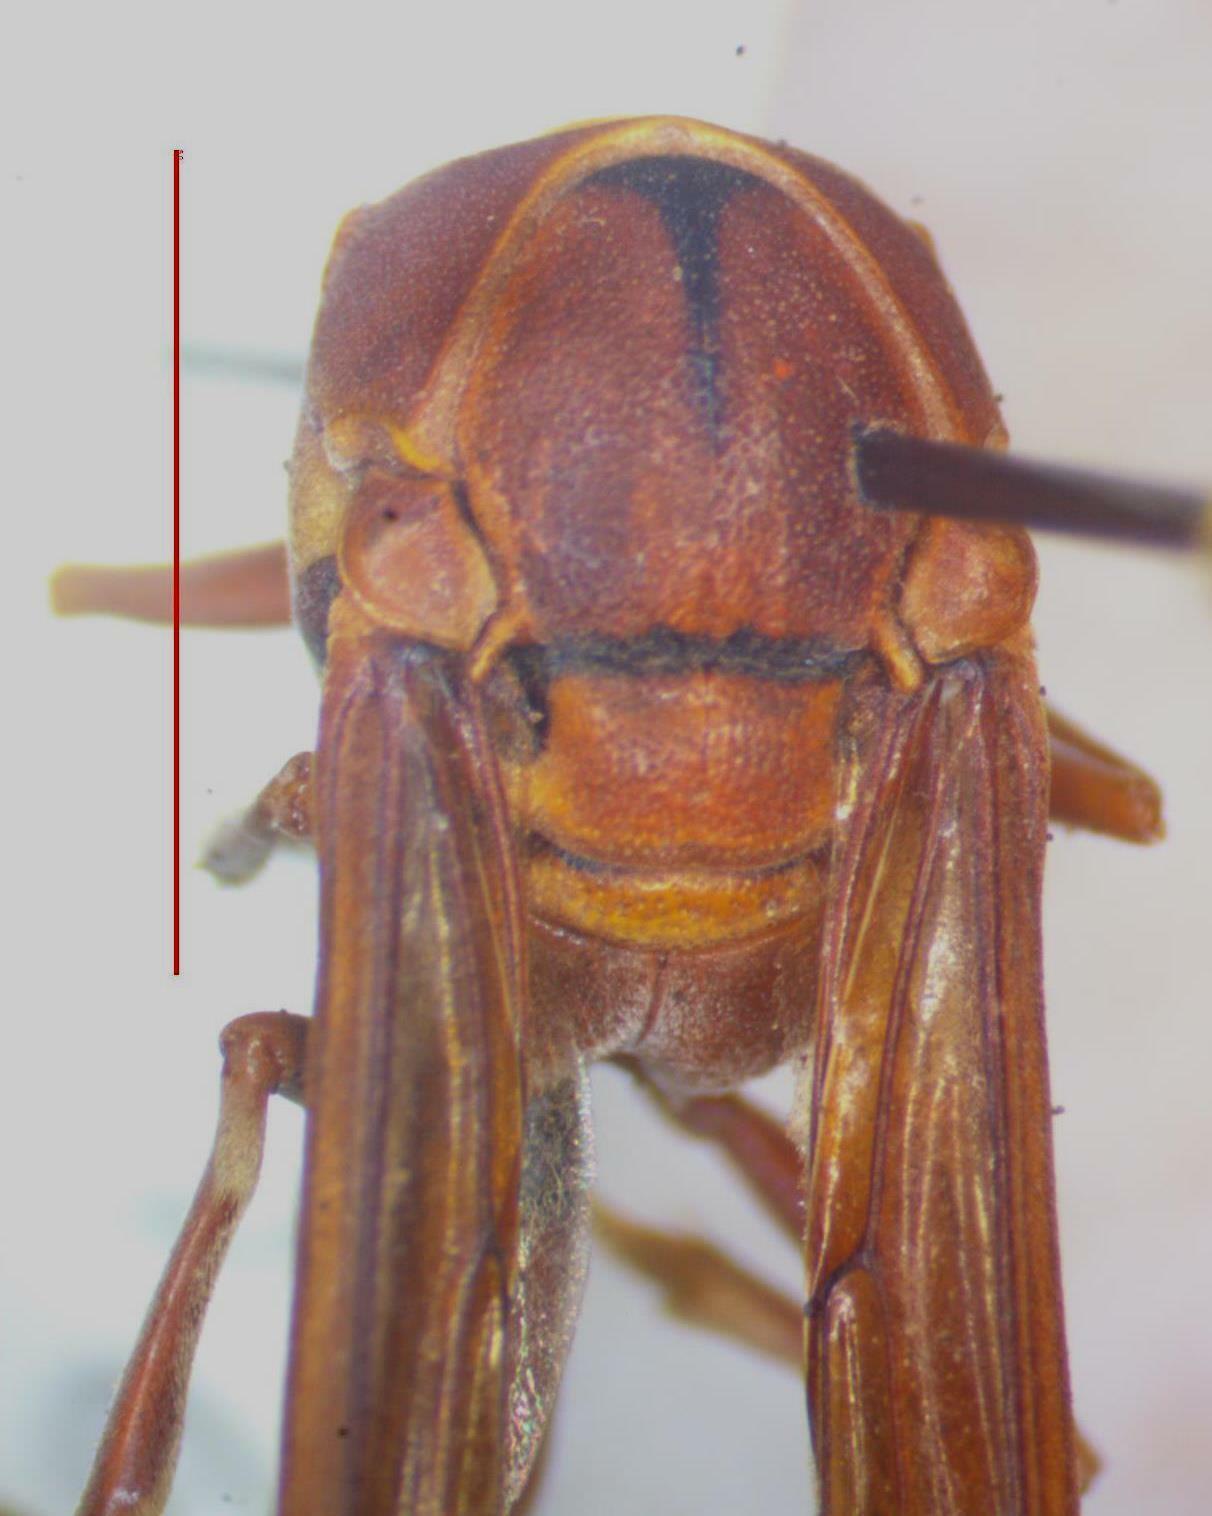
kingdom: Animalia
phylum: Arthropoda
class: Insecta
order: Hymenoptera
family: Eumenidae
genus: Zeta
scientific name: Zeta argillaceum
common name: Potter wasp
